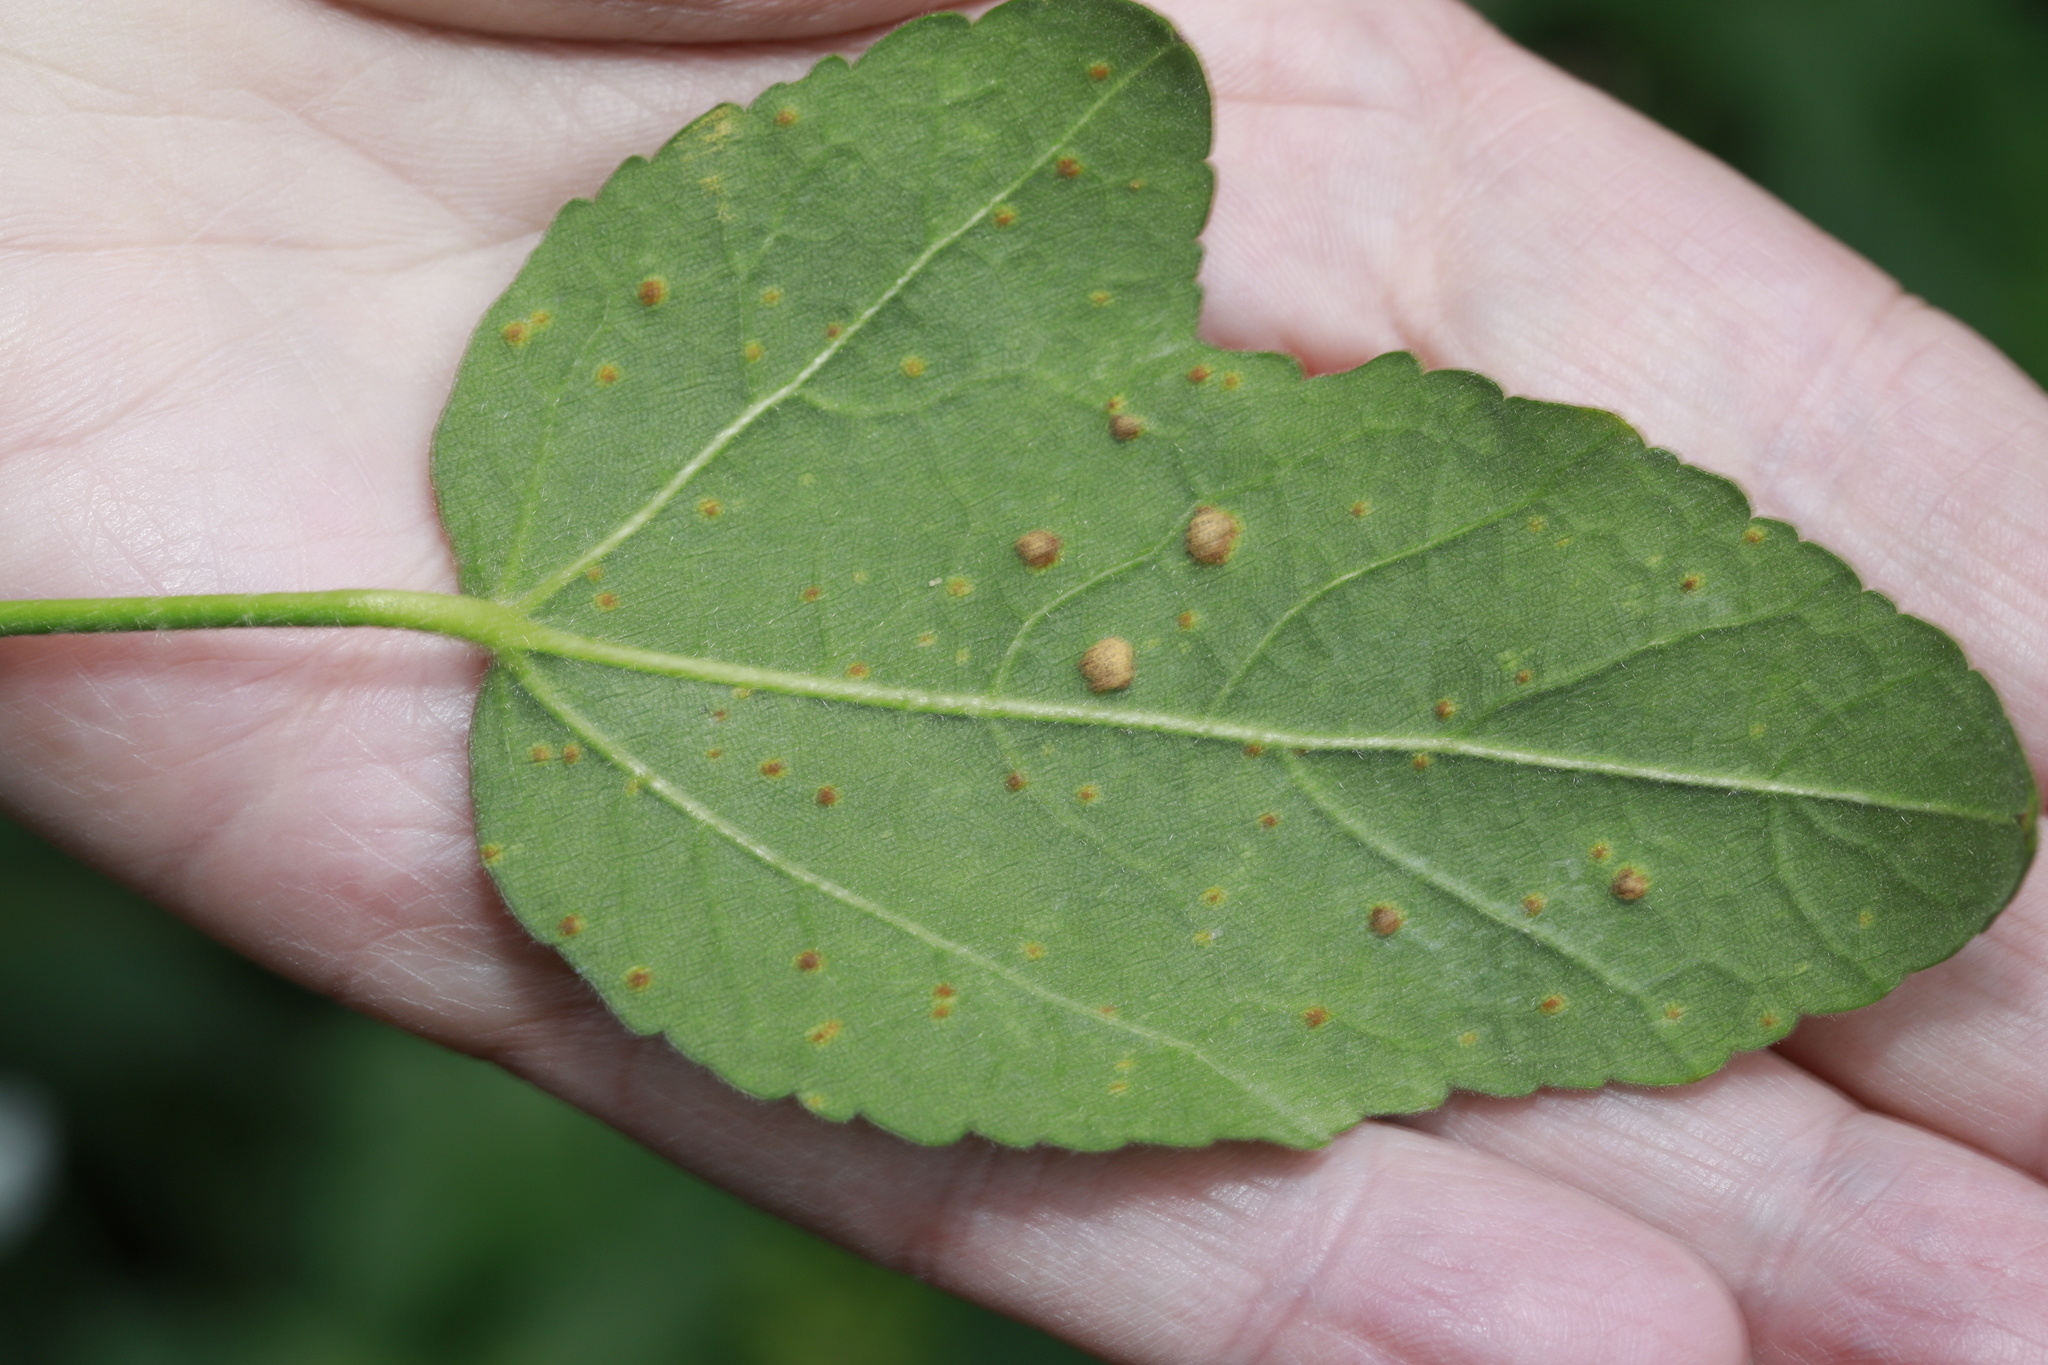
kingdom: Fungi
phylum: Basidiomycota
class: Pucciniomycetes
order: Pucciniales
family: Pucciniaceae
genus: Puccinia
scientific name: Puccinia malvacearum
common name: Hollyhock rust
